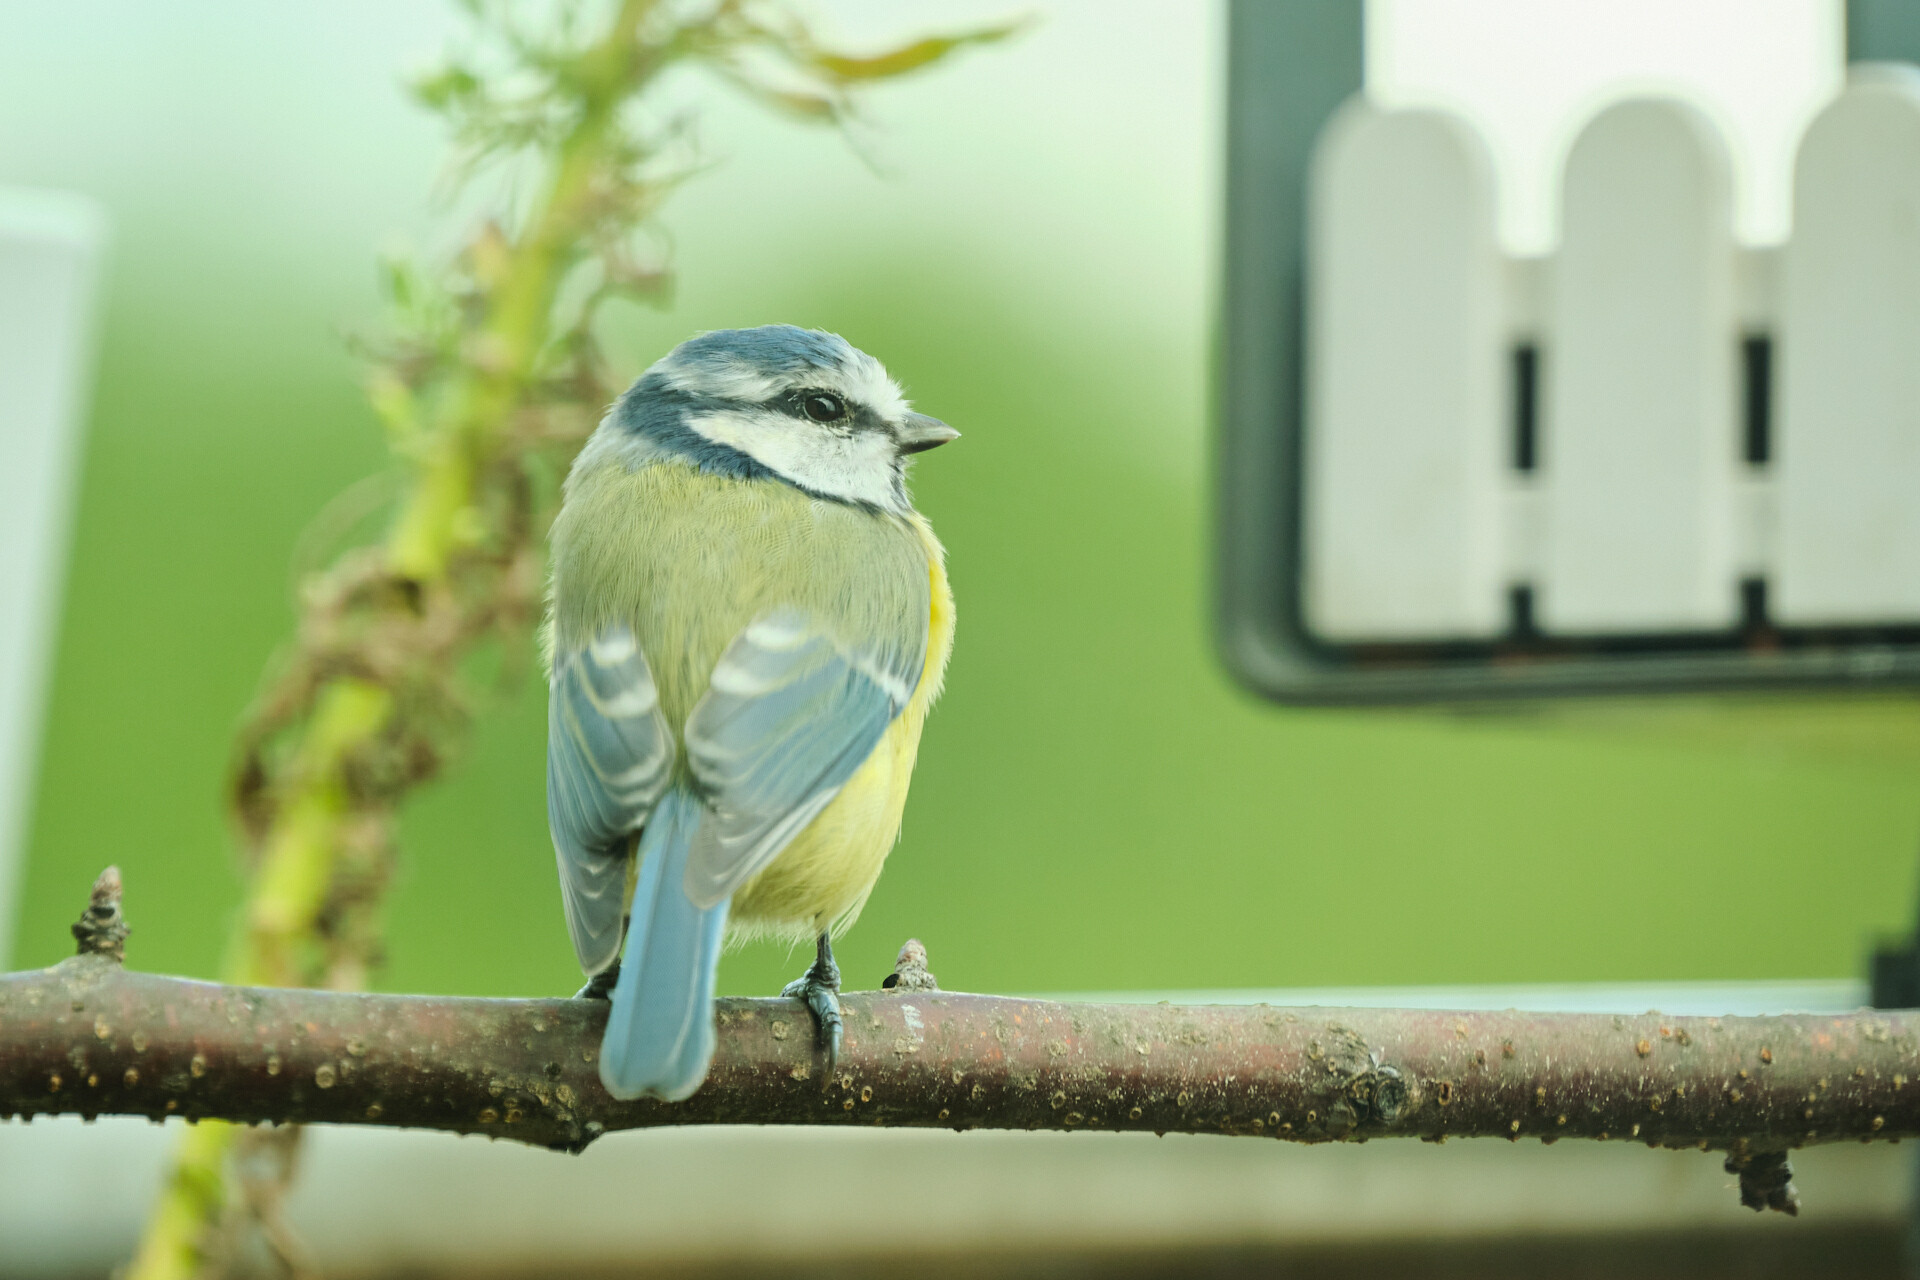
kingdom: Animalia
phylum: Chordata
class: Aves
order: Passeriformes
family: Paridae
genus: Cyanistes
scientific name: Cyanistes caeruleus
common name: Eurasian blue tit
